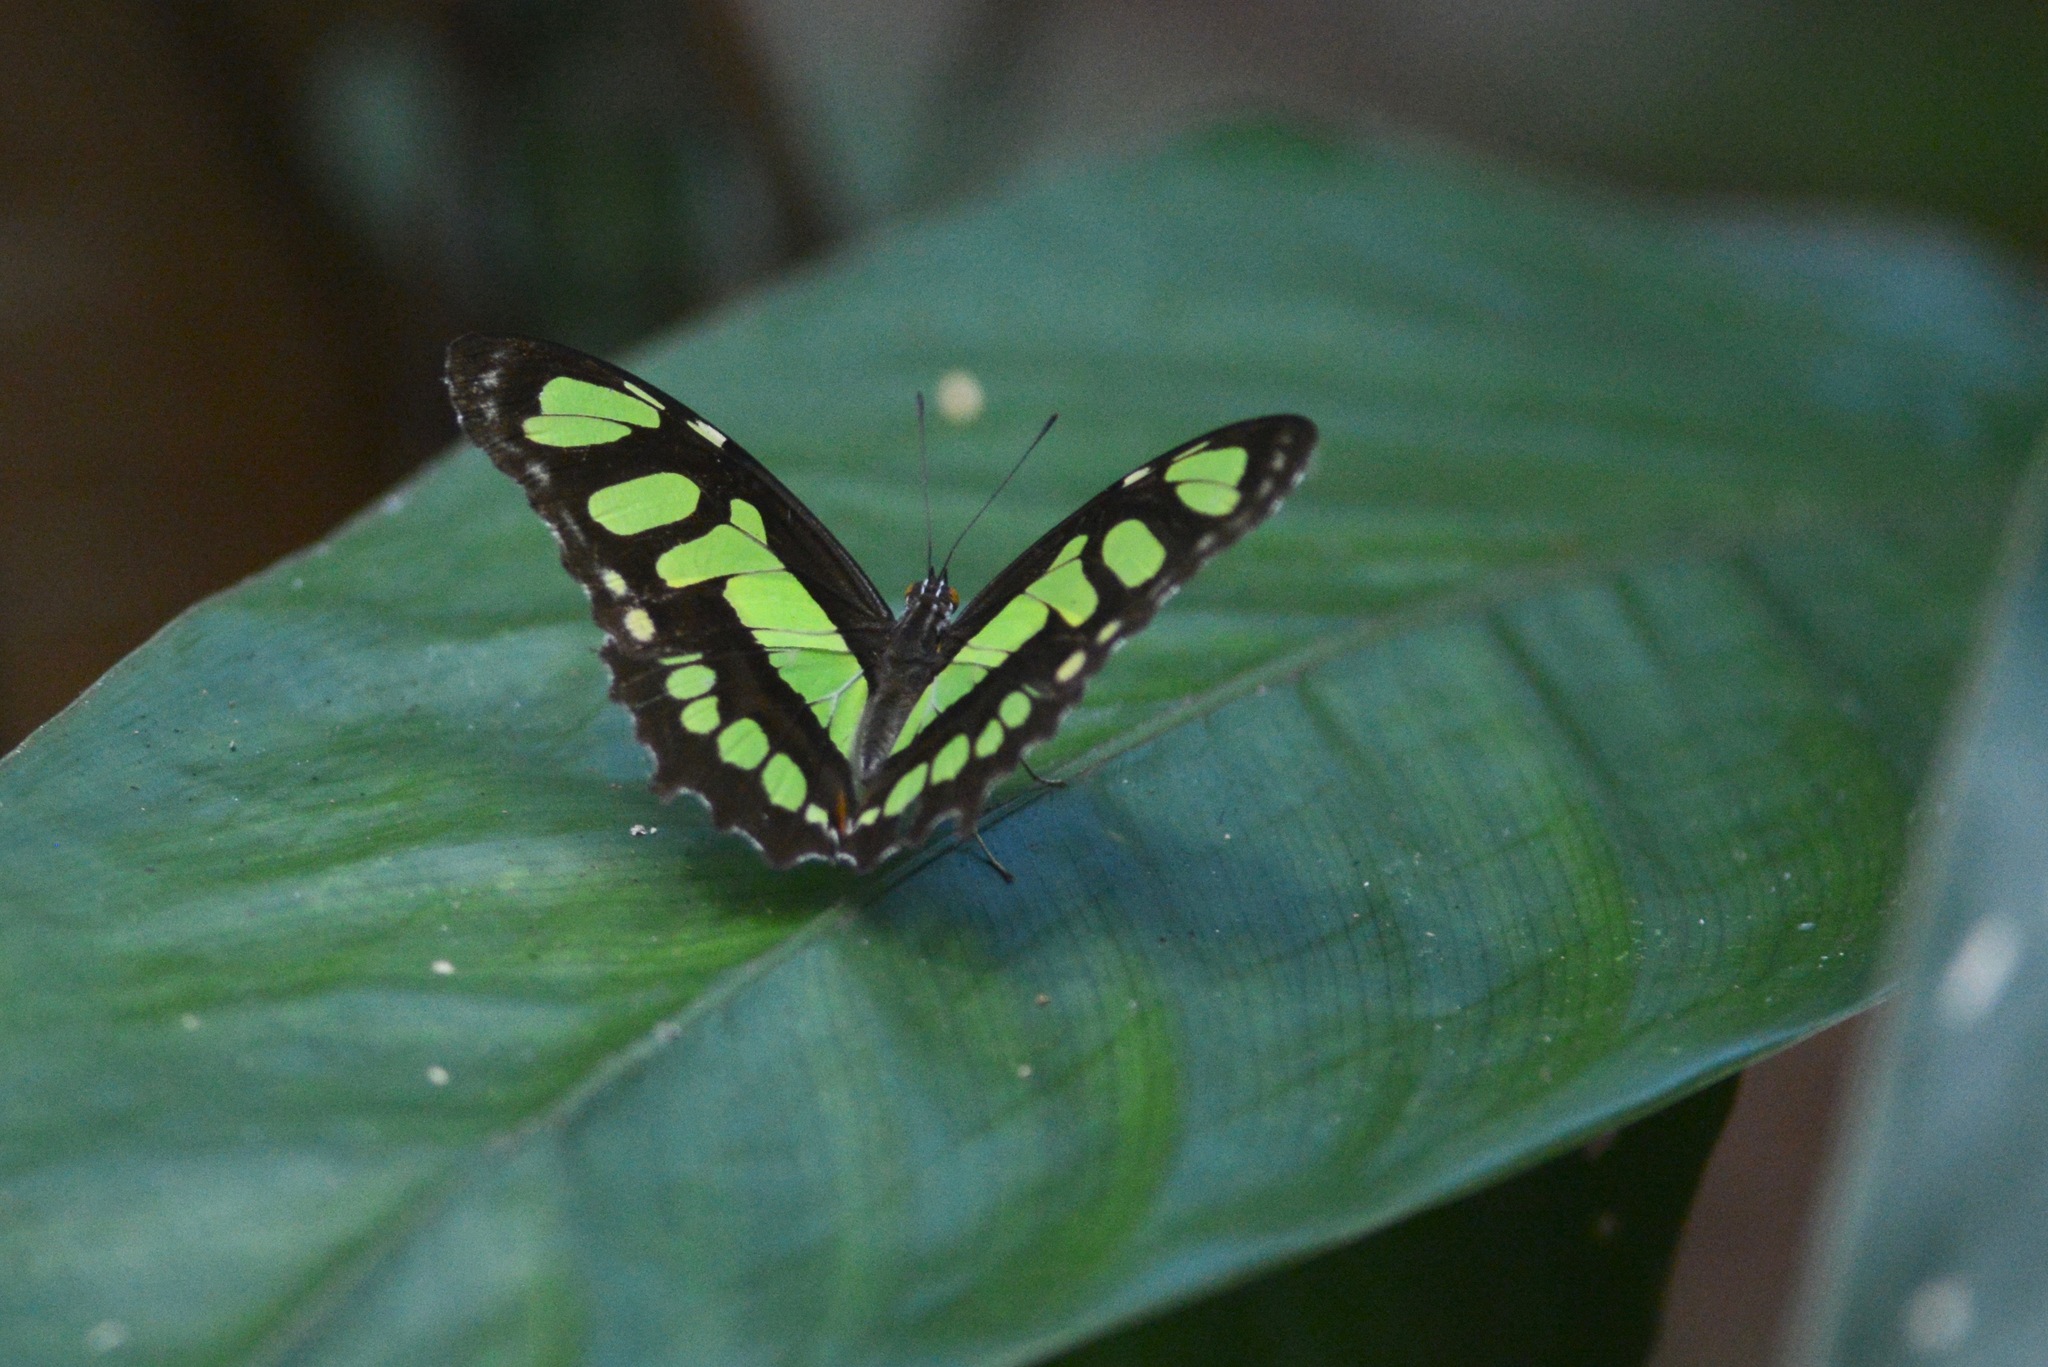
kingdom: Animalia
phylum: Arthropoda
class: Insecta
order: Lepidoptera
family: Nymphalidae
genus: Siproeta
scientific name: Siproeta stelenes
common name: Malachite
